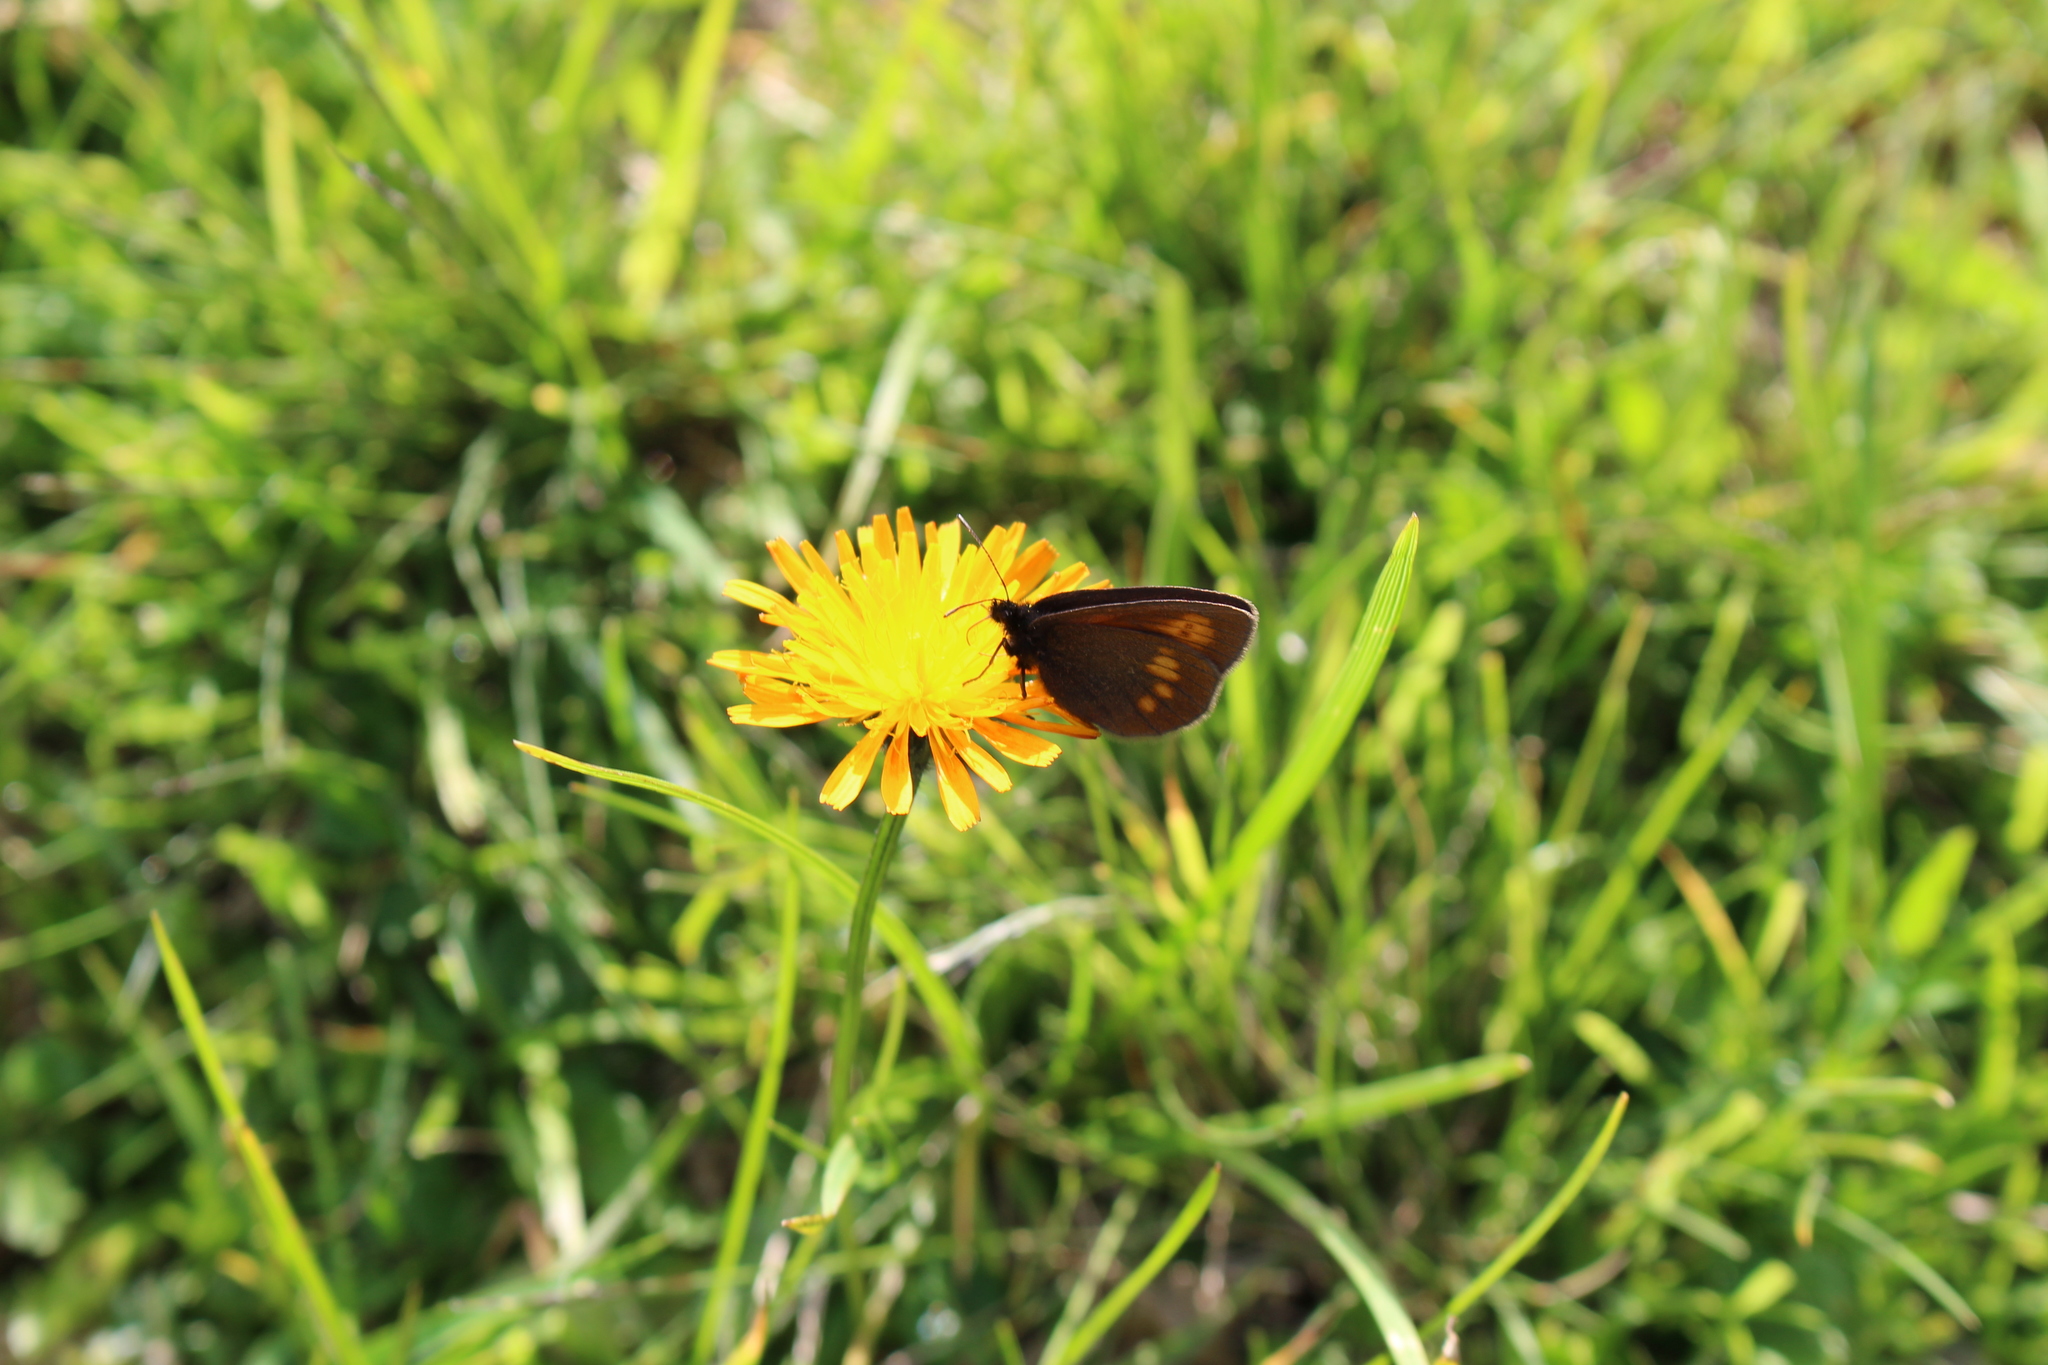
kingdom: Animalia
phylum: Arthropoda
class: Insecta
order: Lepidoptera
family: Nymphalidae
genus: Erebia
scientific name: Erebia eriphyle
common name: Eriphyle ringlet
